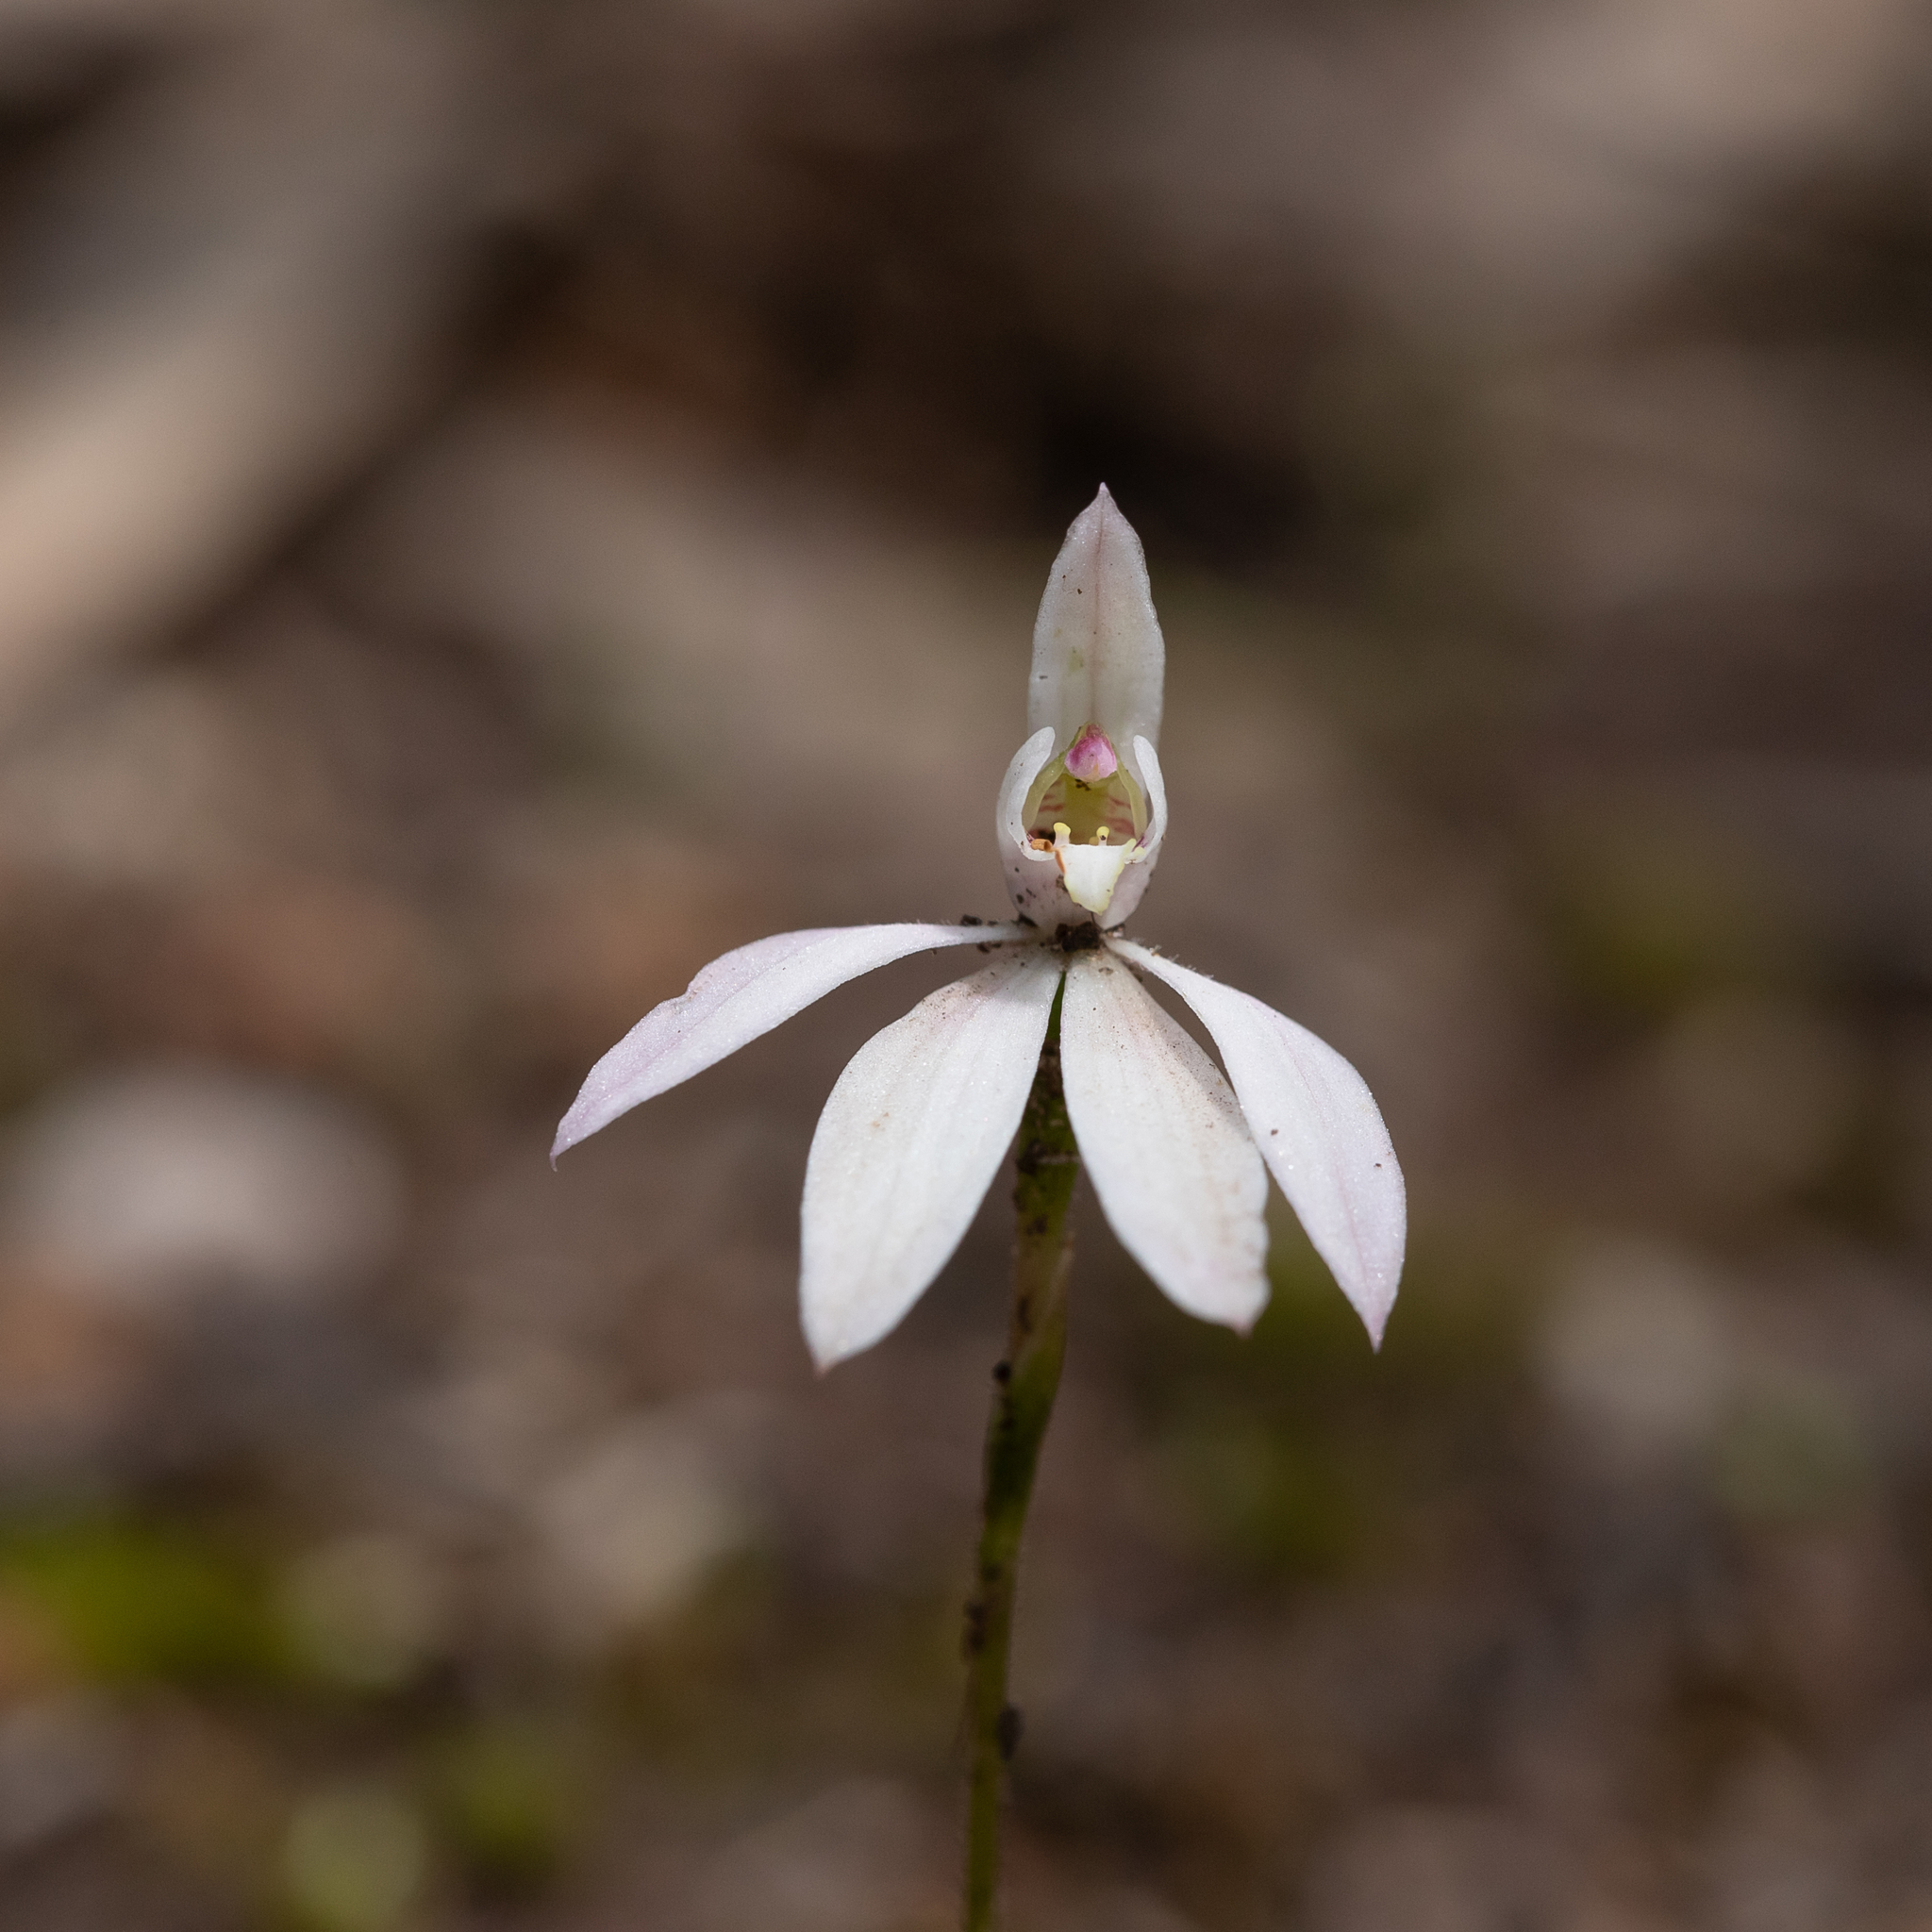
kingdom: Plantae
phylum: Tracheophyta
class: Liliopsida
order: Asparagales
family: Orchidaceae
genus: Caladenia
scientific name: Caladenia carnea
